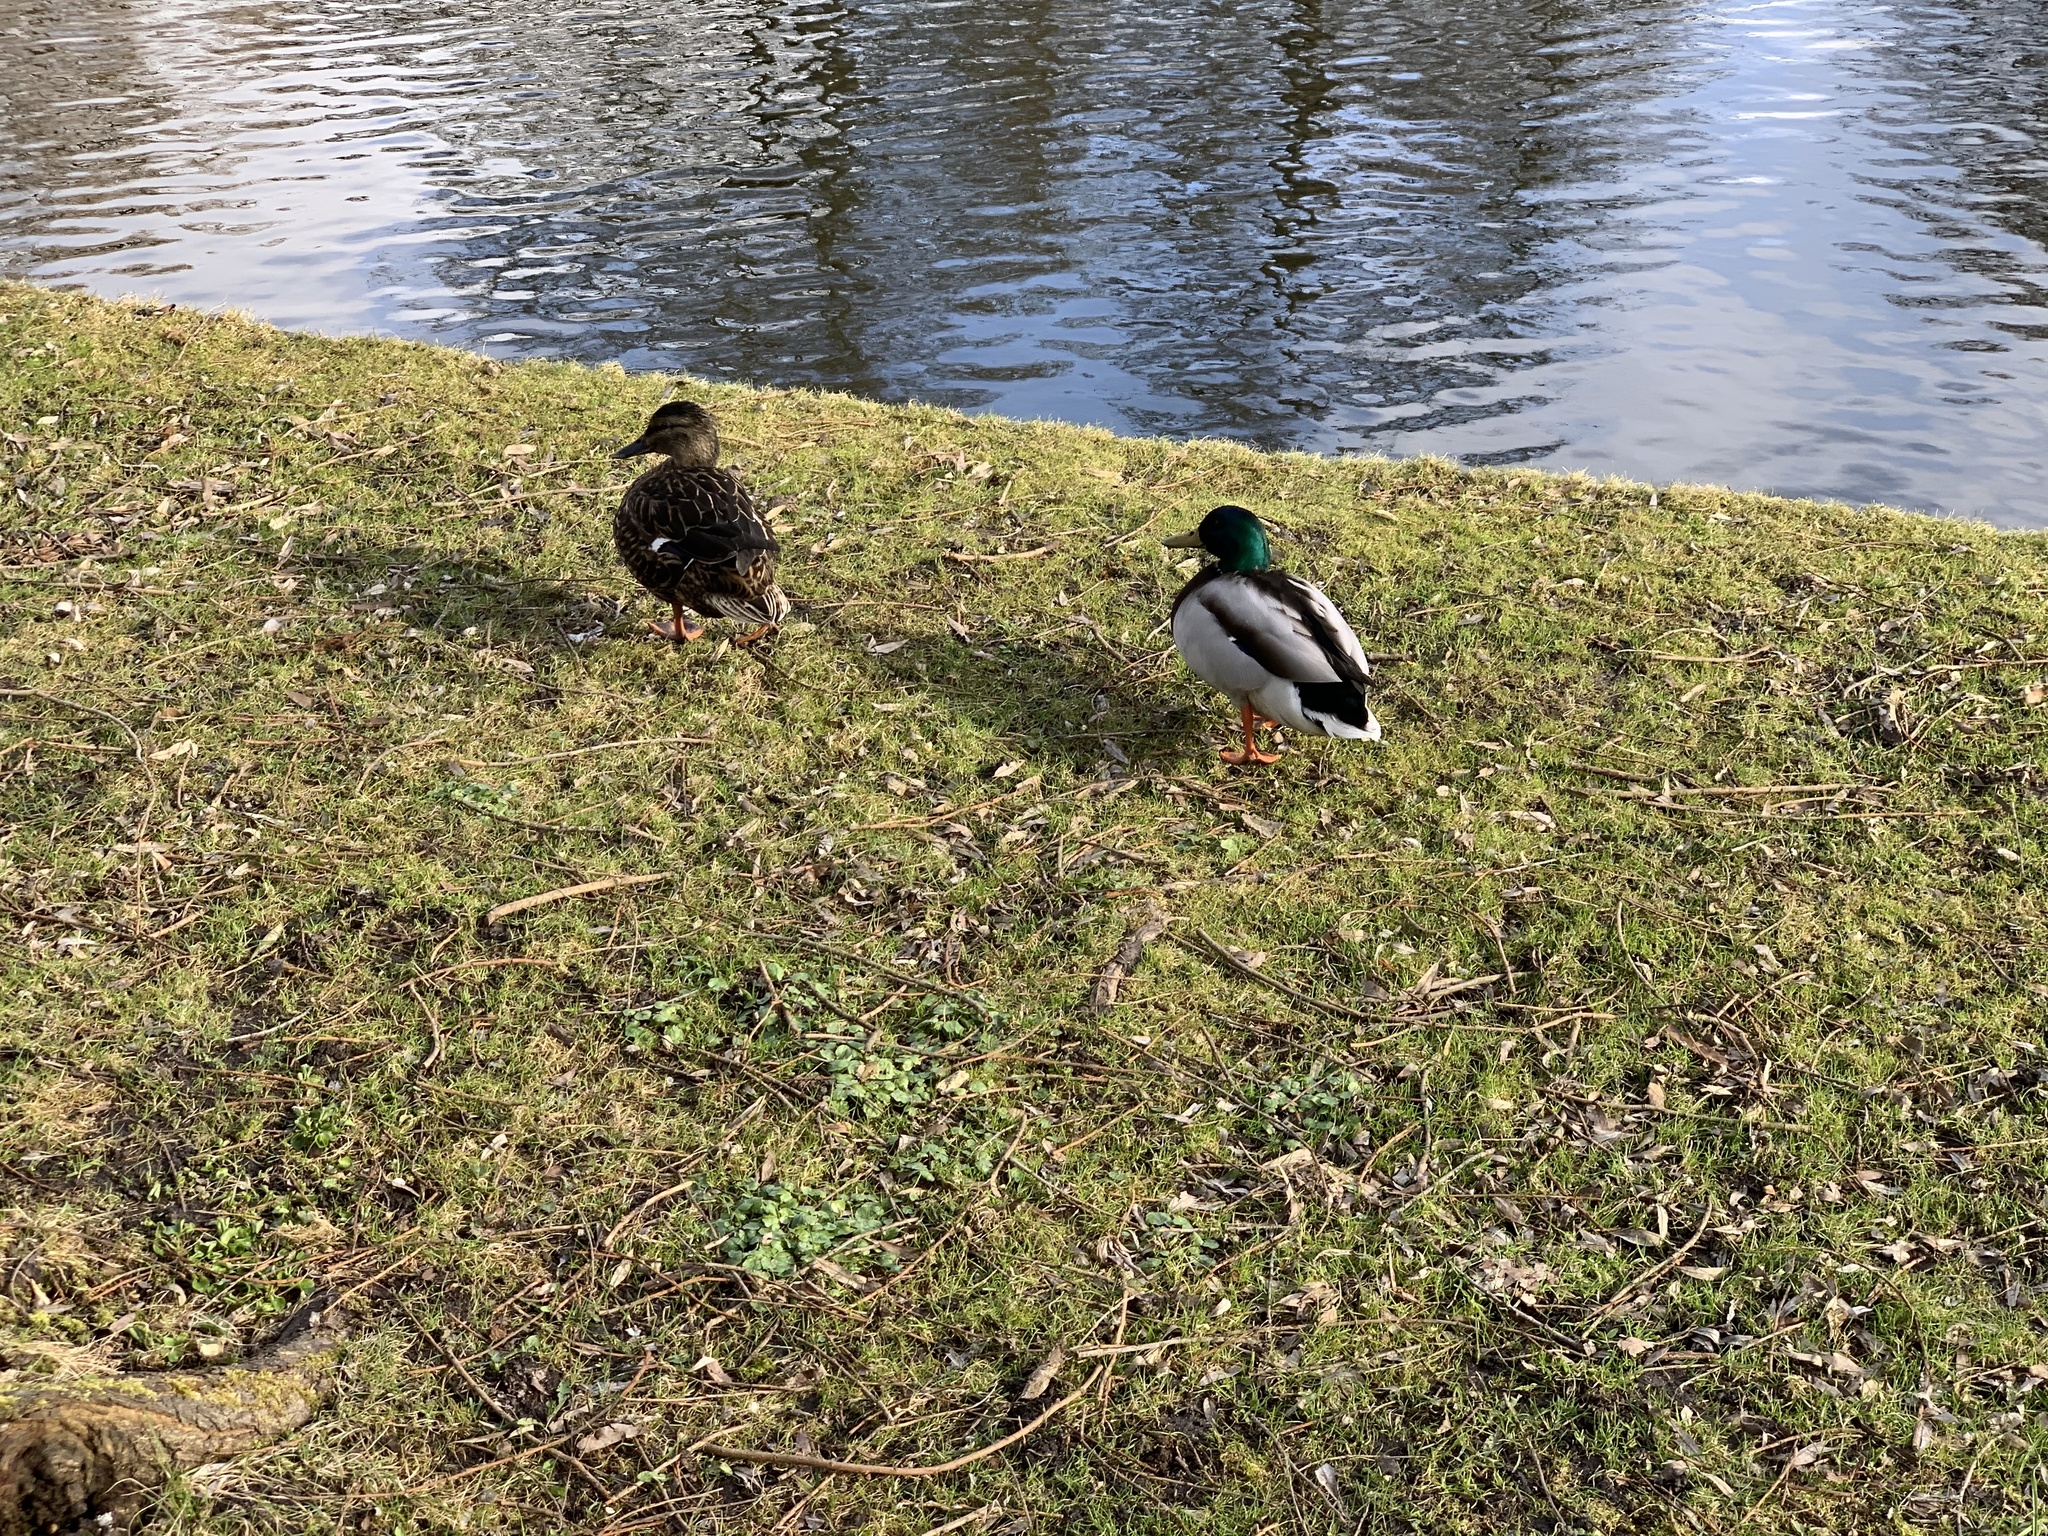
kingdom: Animalia
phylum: Chordata
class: Aves
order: Anseriformes
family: Anatidae
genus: Anas
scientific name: Anas platyrhynchos
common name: Mallard
